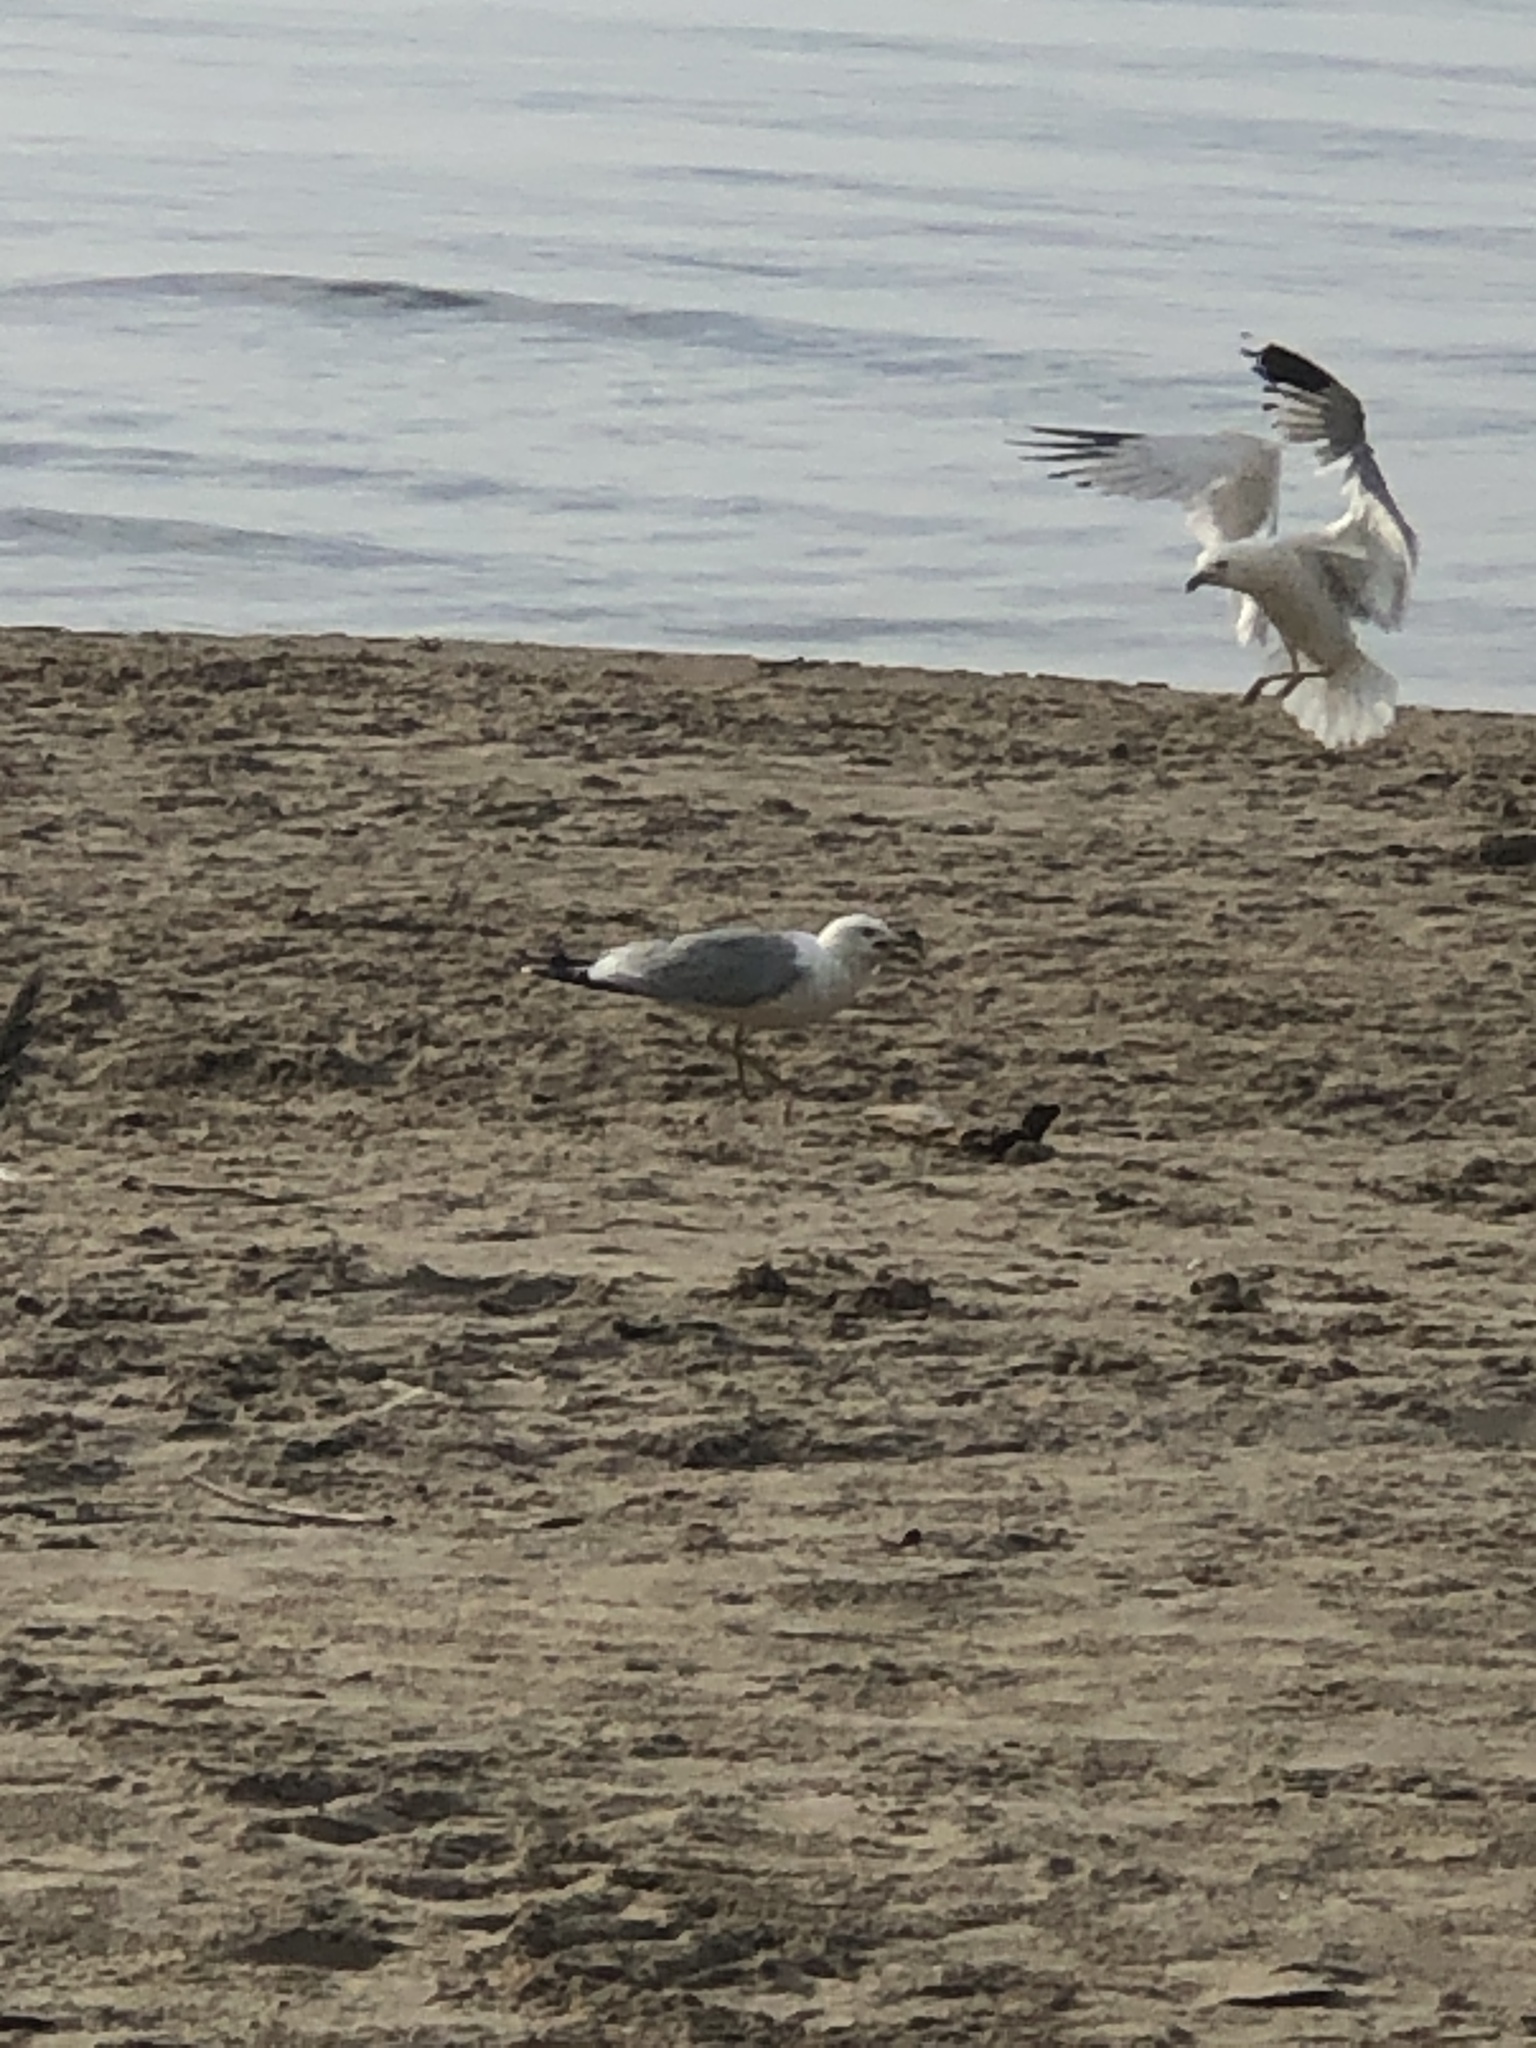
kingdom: Animalia
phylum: Chordata
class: Aves
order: Charadriiformes
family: Laridae
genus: Larus
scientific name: Larus delawarensis
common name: Ring-billed gull
